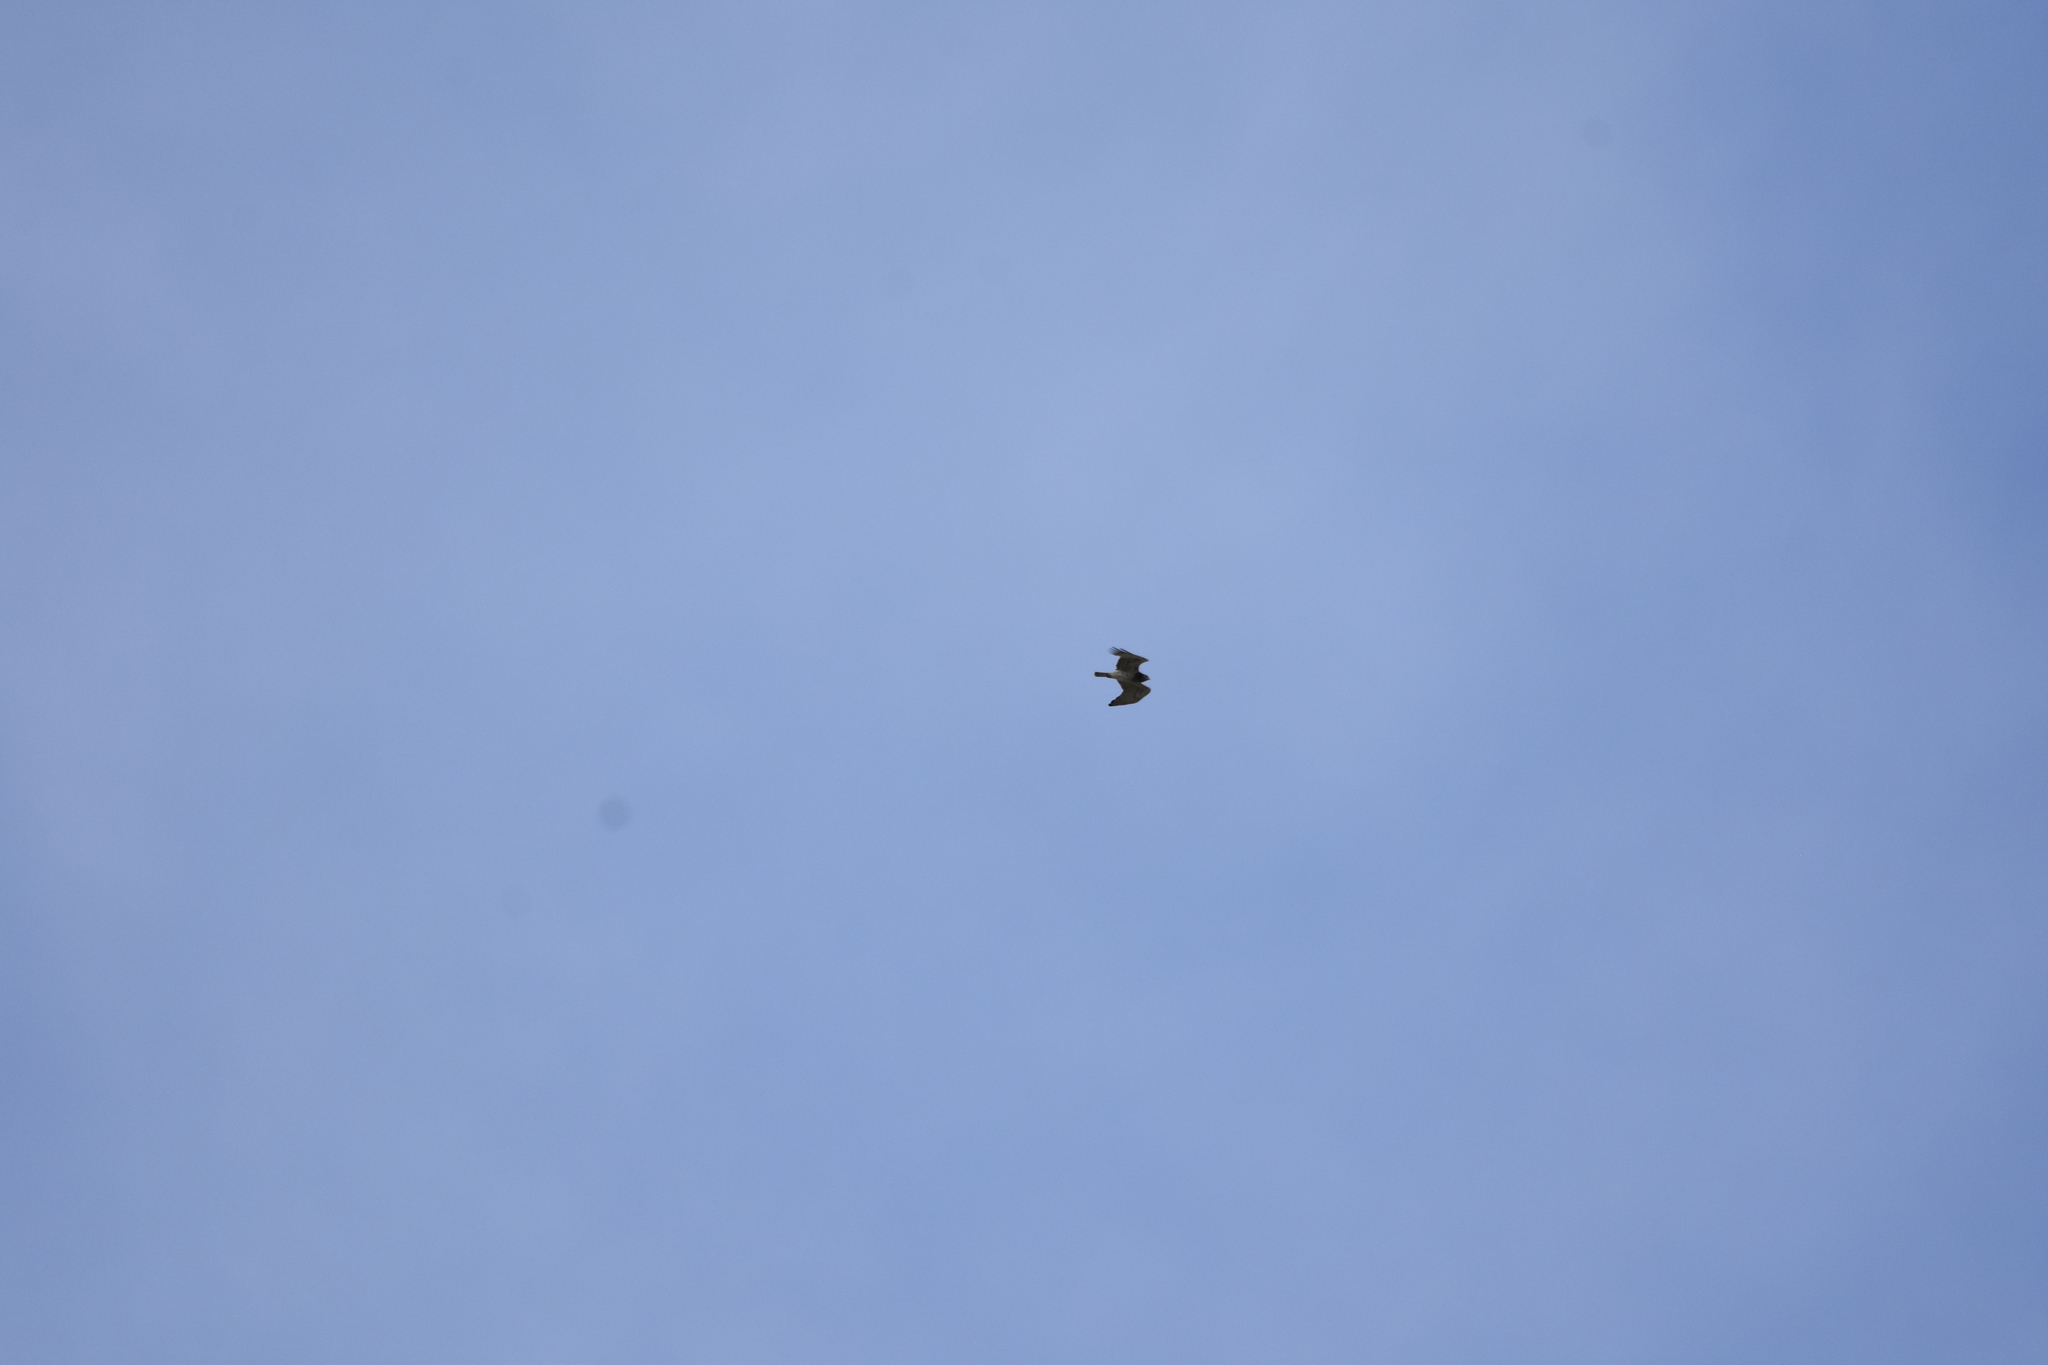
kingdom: Animalia
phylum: Chordata
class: Aves
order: Accipitriformes
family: Accipitridae
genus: Circaetus
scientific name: Circaetus gallicus
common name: Short-toed snake eagle
